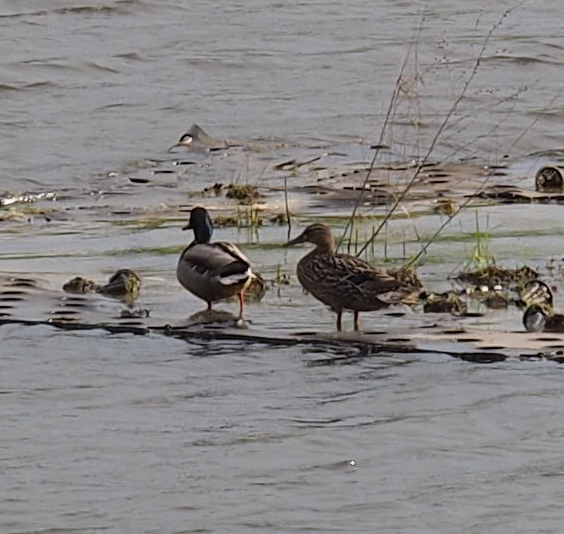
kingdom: Animalia
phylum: Chordata
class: Aves
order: Anseriformes
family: Anatidae
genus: Anas
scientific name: Anas platyrhynchos
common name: Mallard
